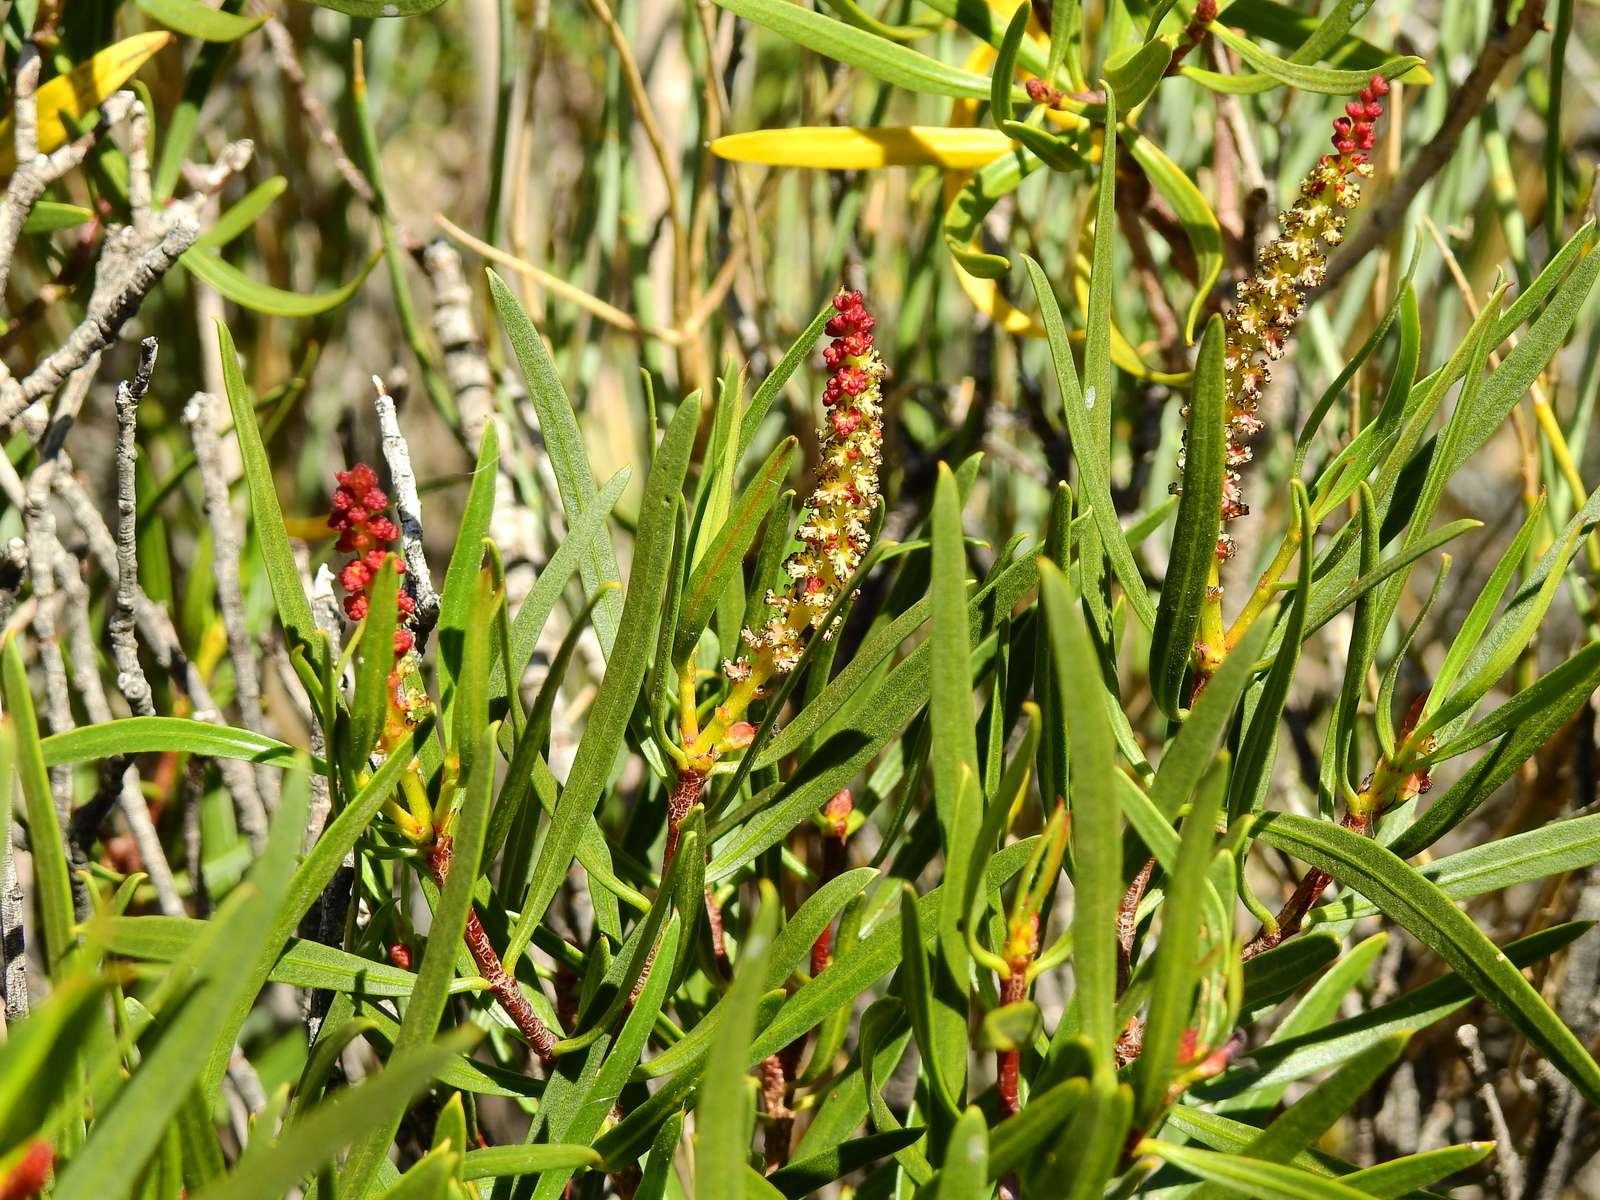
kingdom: Plantae
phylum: Tracheophyta
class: Magnoliopsida
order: Malpighiales
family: Euphorbiaceae
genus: Colliguaja
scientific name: Colliguaja integerrima
